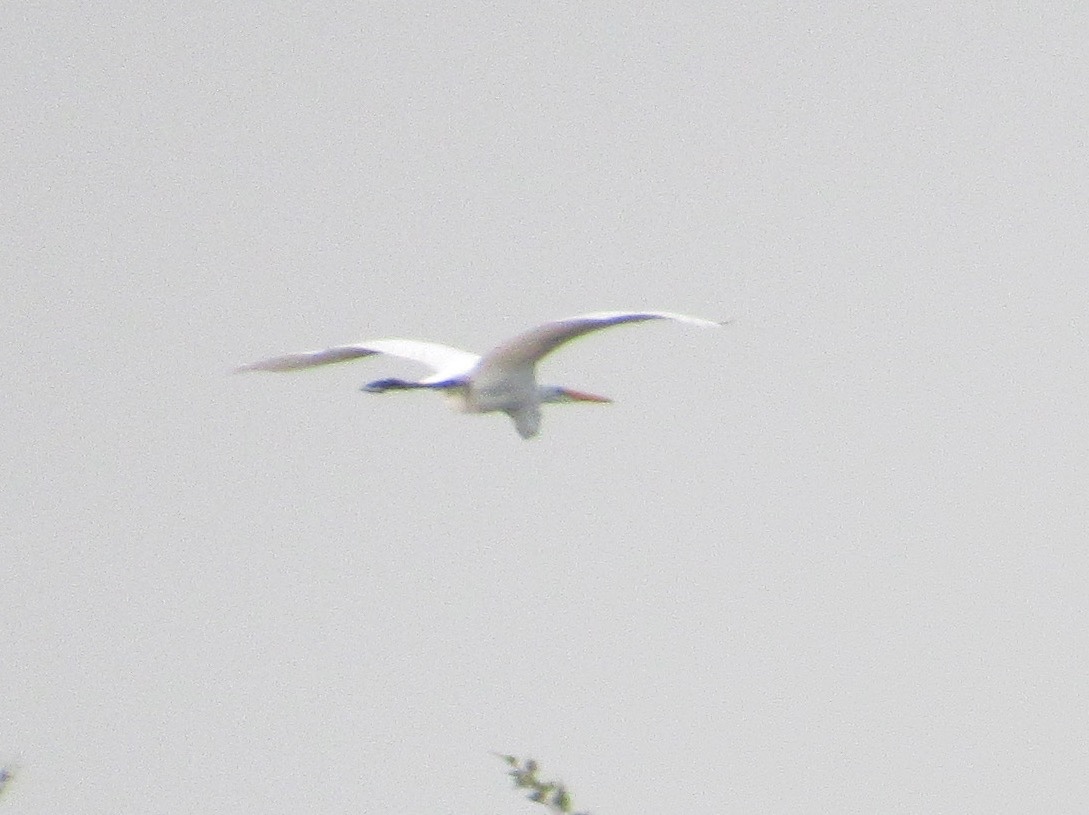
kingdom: Animalia
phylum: Chordata
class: Aves
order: Pelecaniformes
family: Ardeidae
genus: Ardea
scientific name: Ardea alba
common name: Great egret
